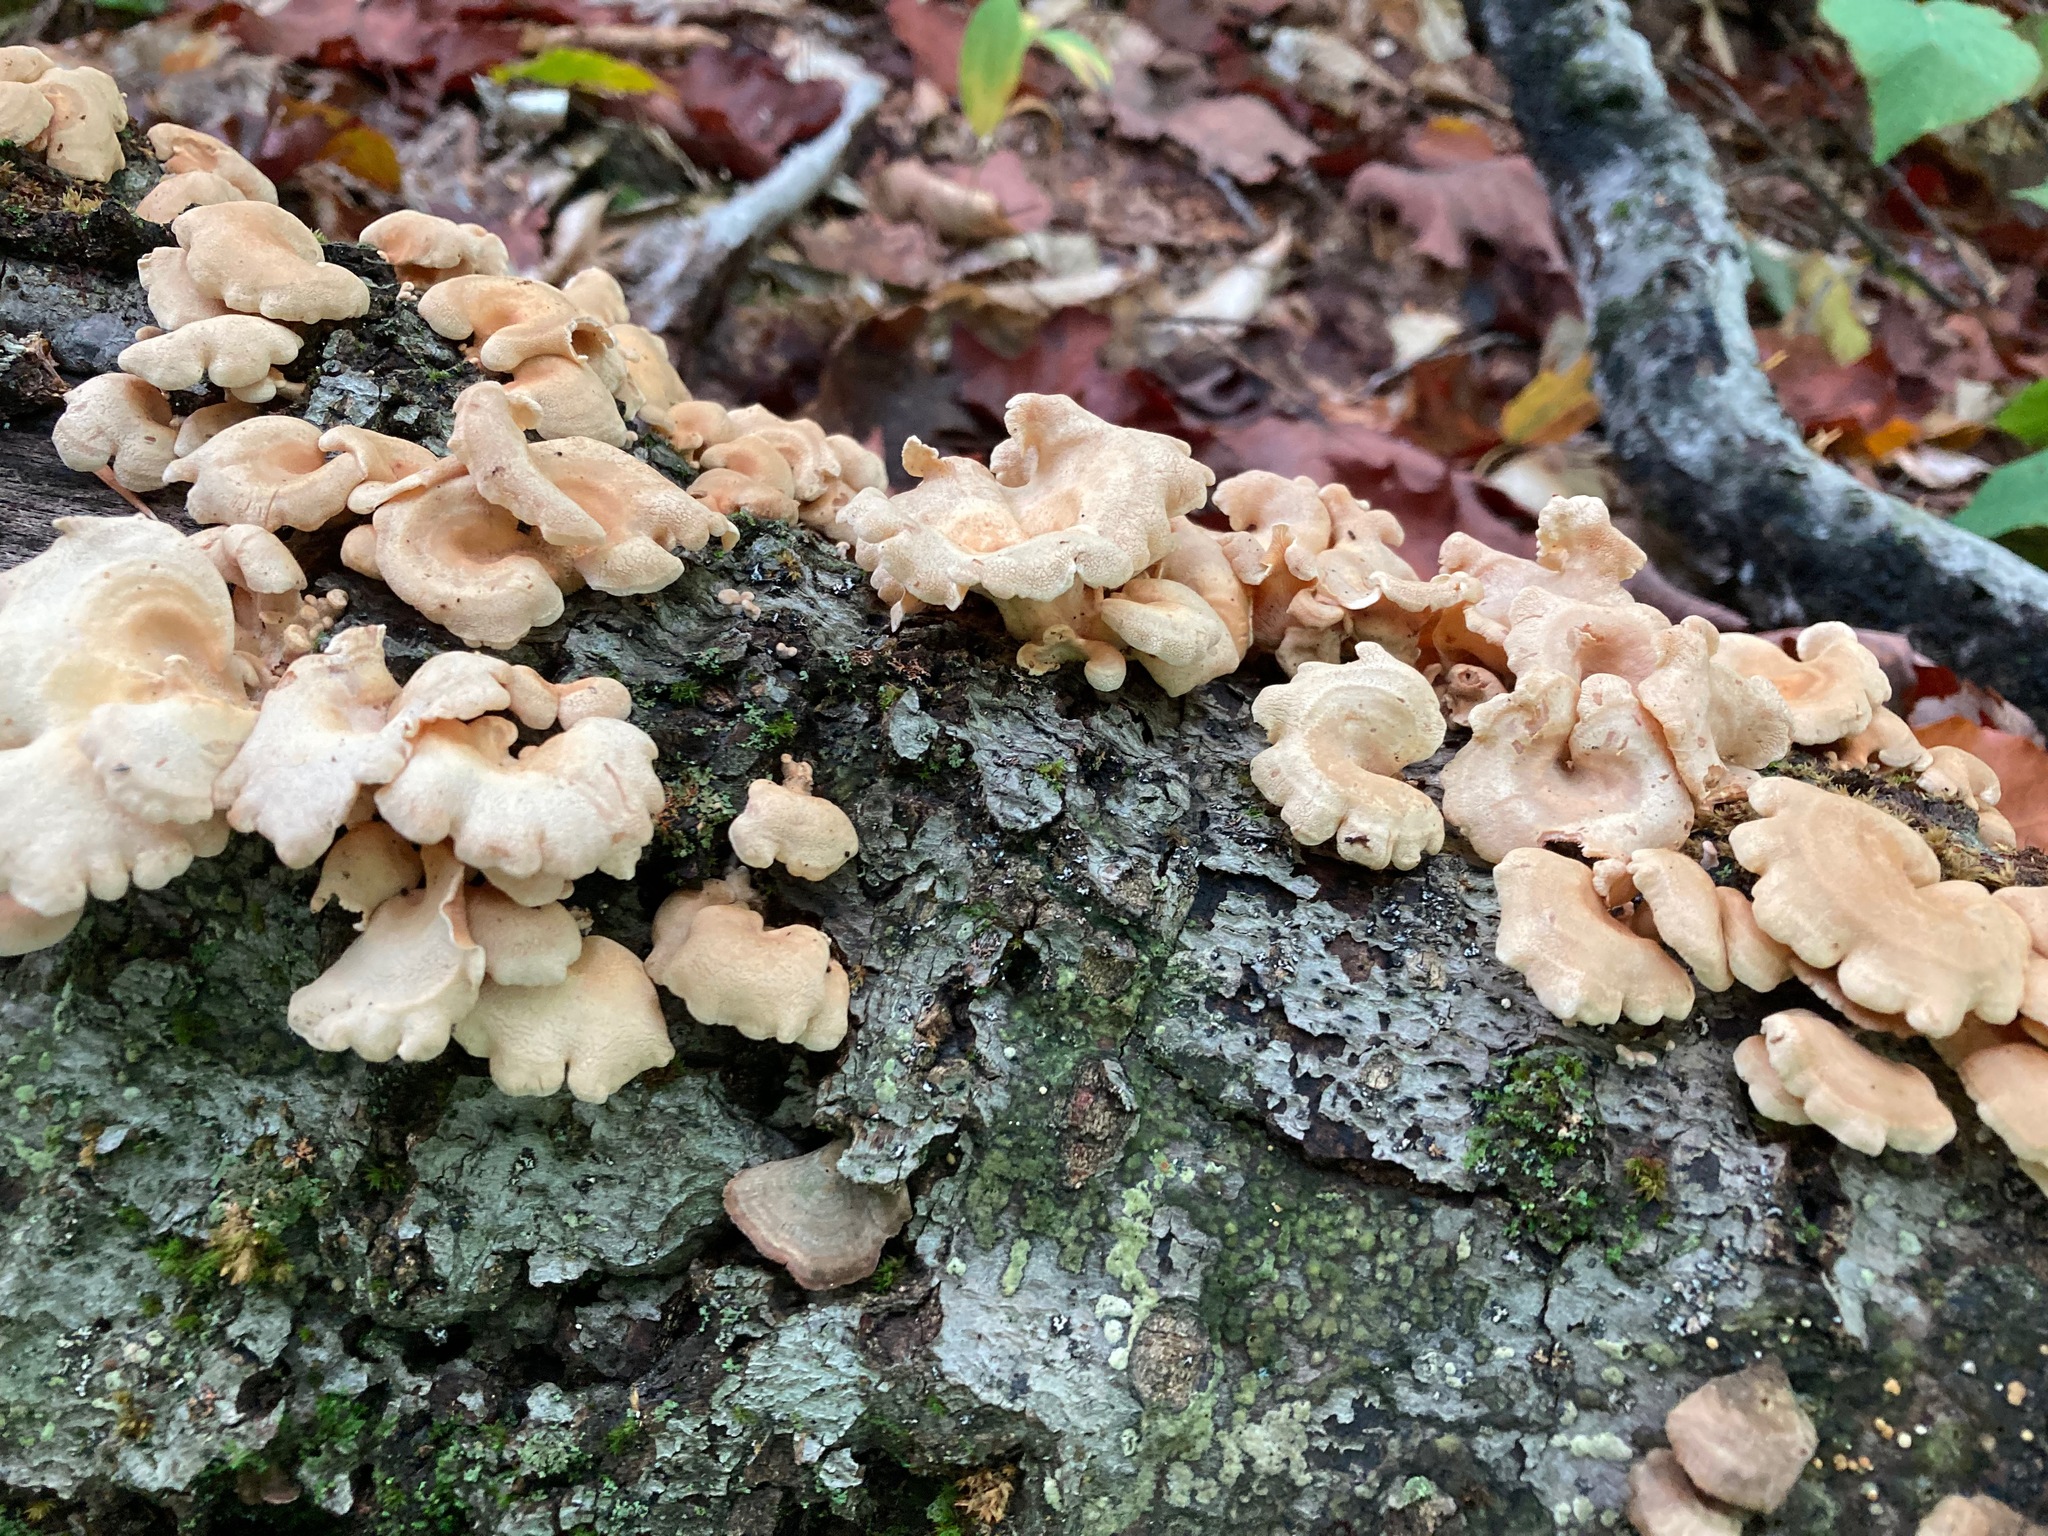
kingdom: Fungi
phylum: Basidiomycota
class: Agaricomycetes
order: Agaricales
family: Mycenaceae
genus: Panellus
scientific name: Panellus stipticus
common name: Bitter oysterling
